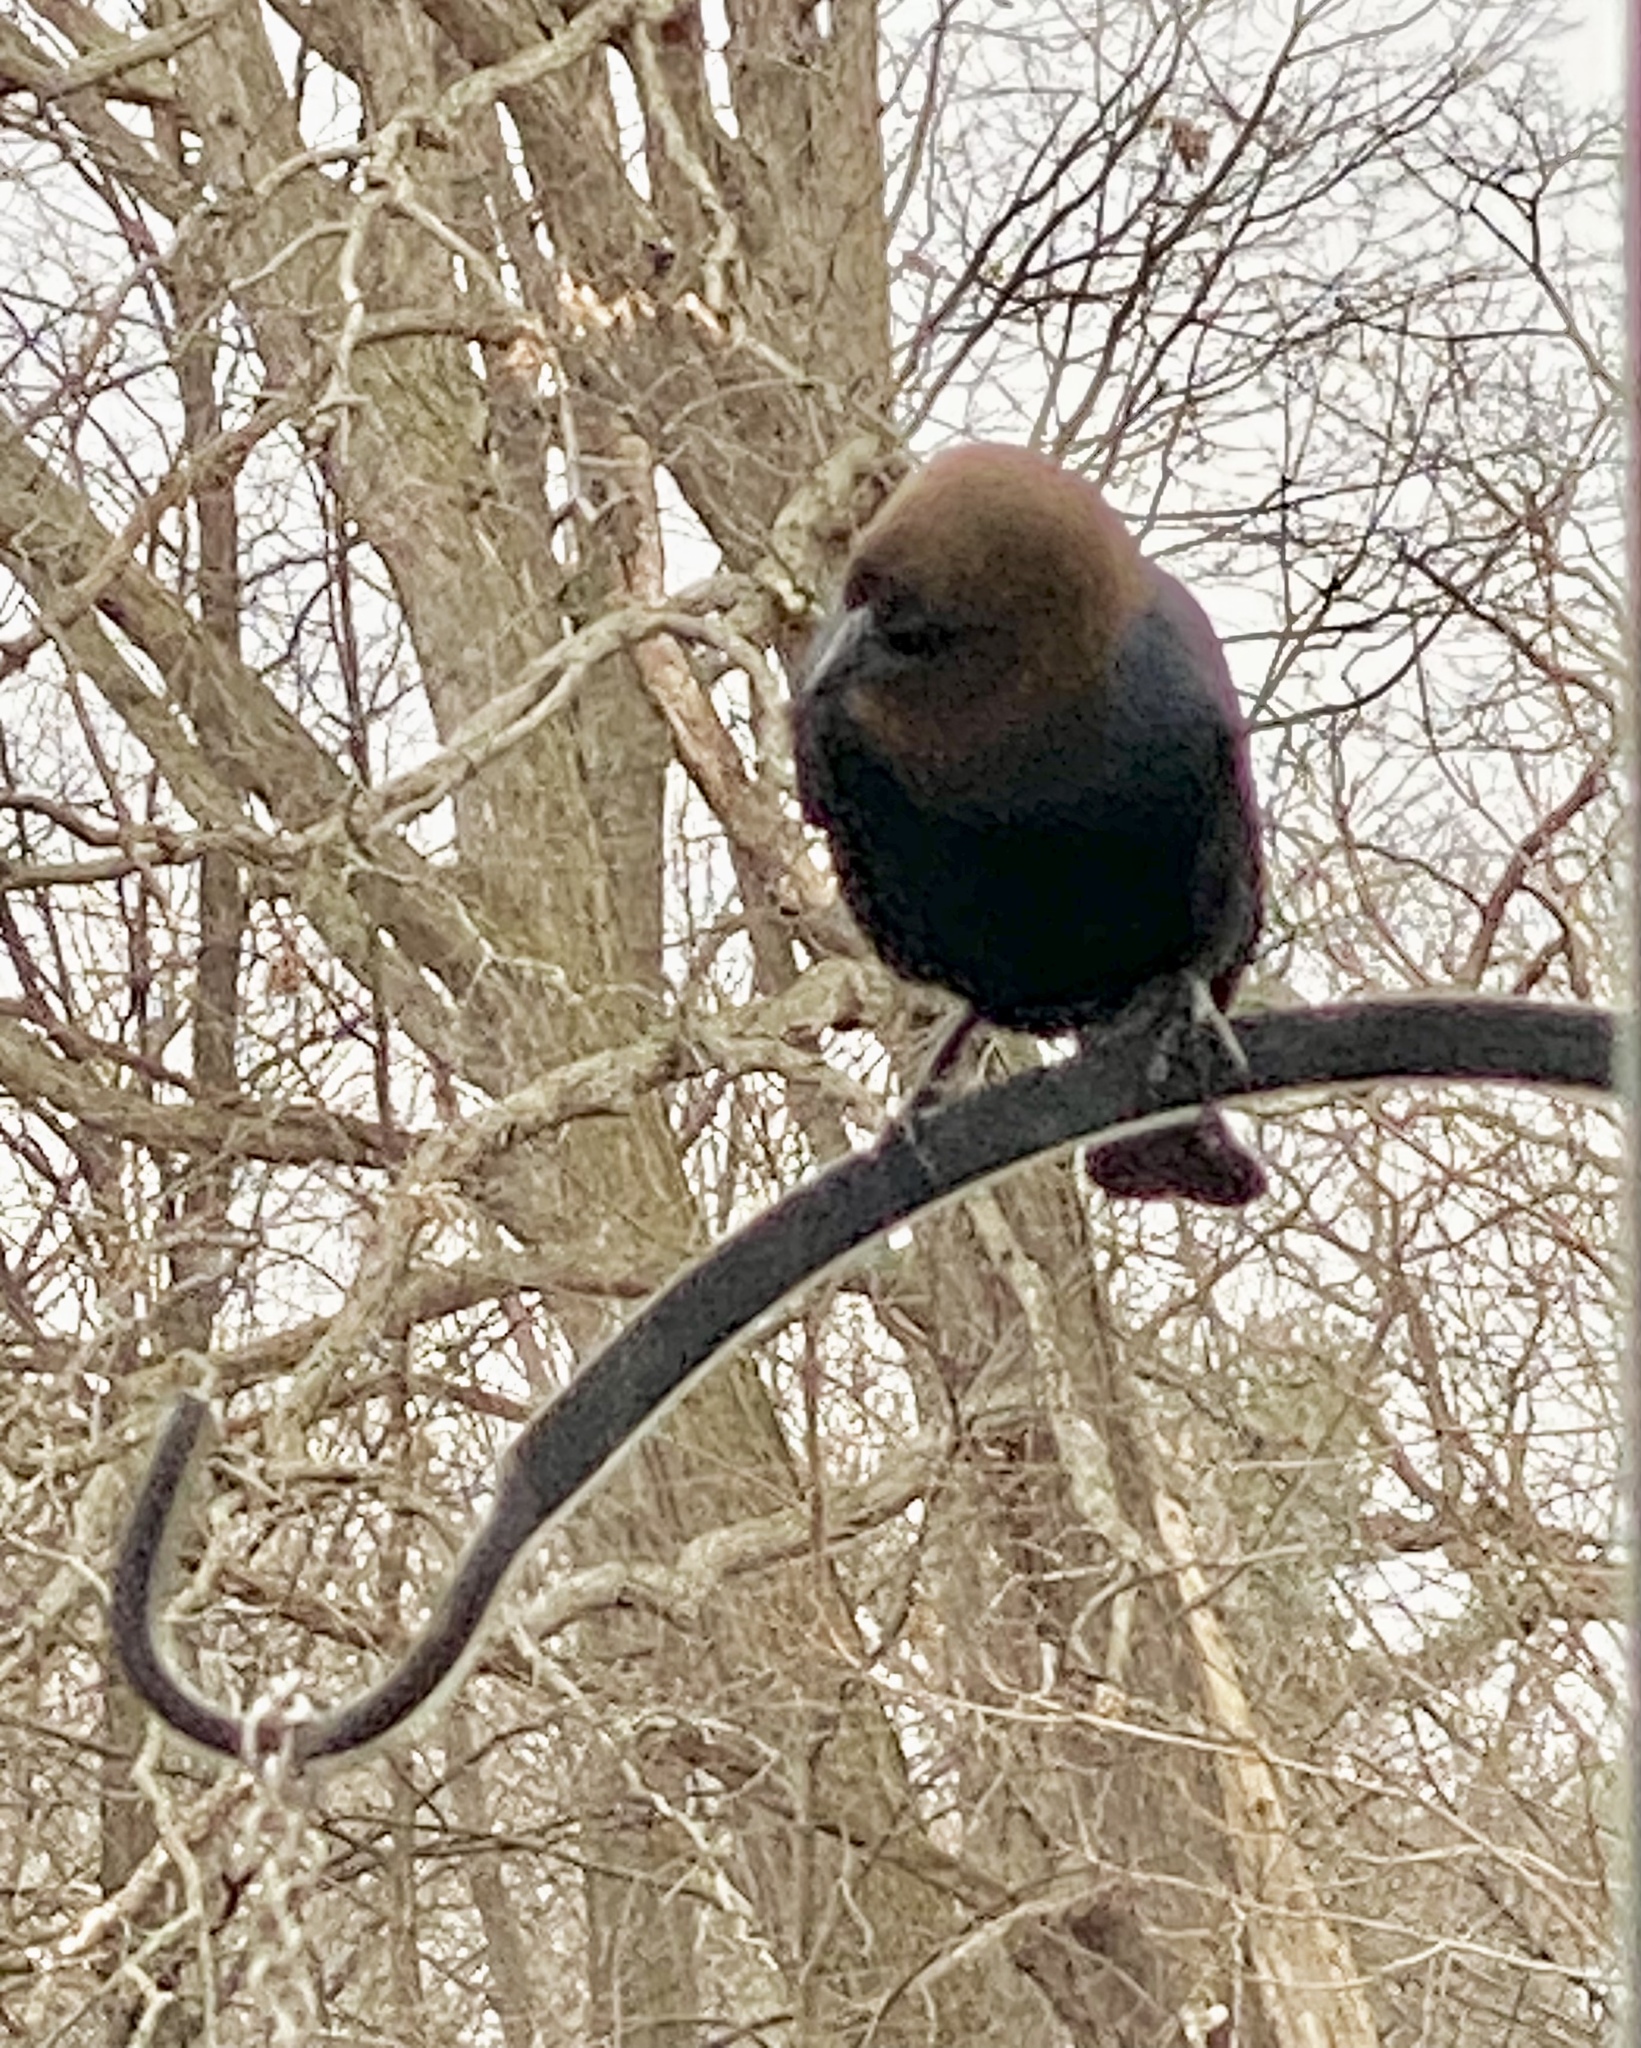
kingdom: Animalia
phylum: Chordata
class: Aves
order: Passeriformes
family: Icteridae
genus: Molothrus
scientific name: Molothrus ater
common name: Brown-headed cowbird
